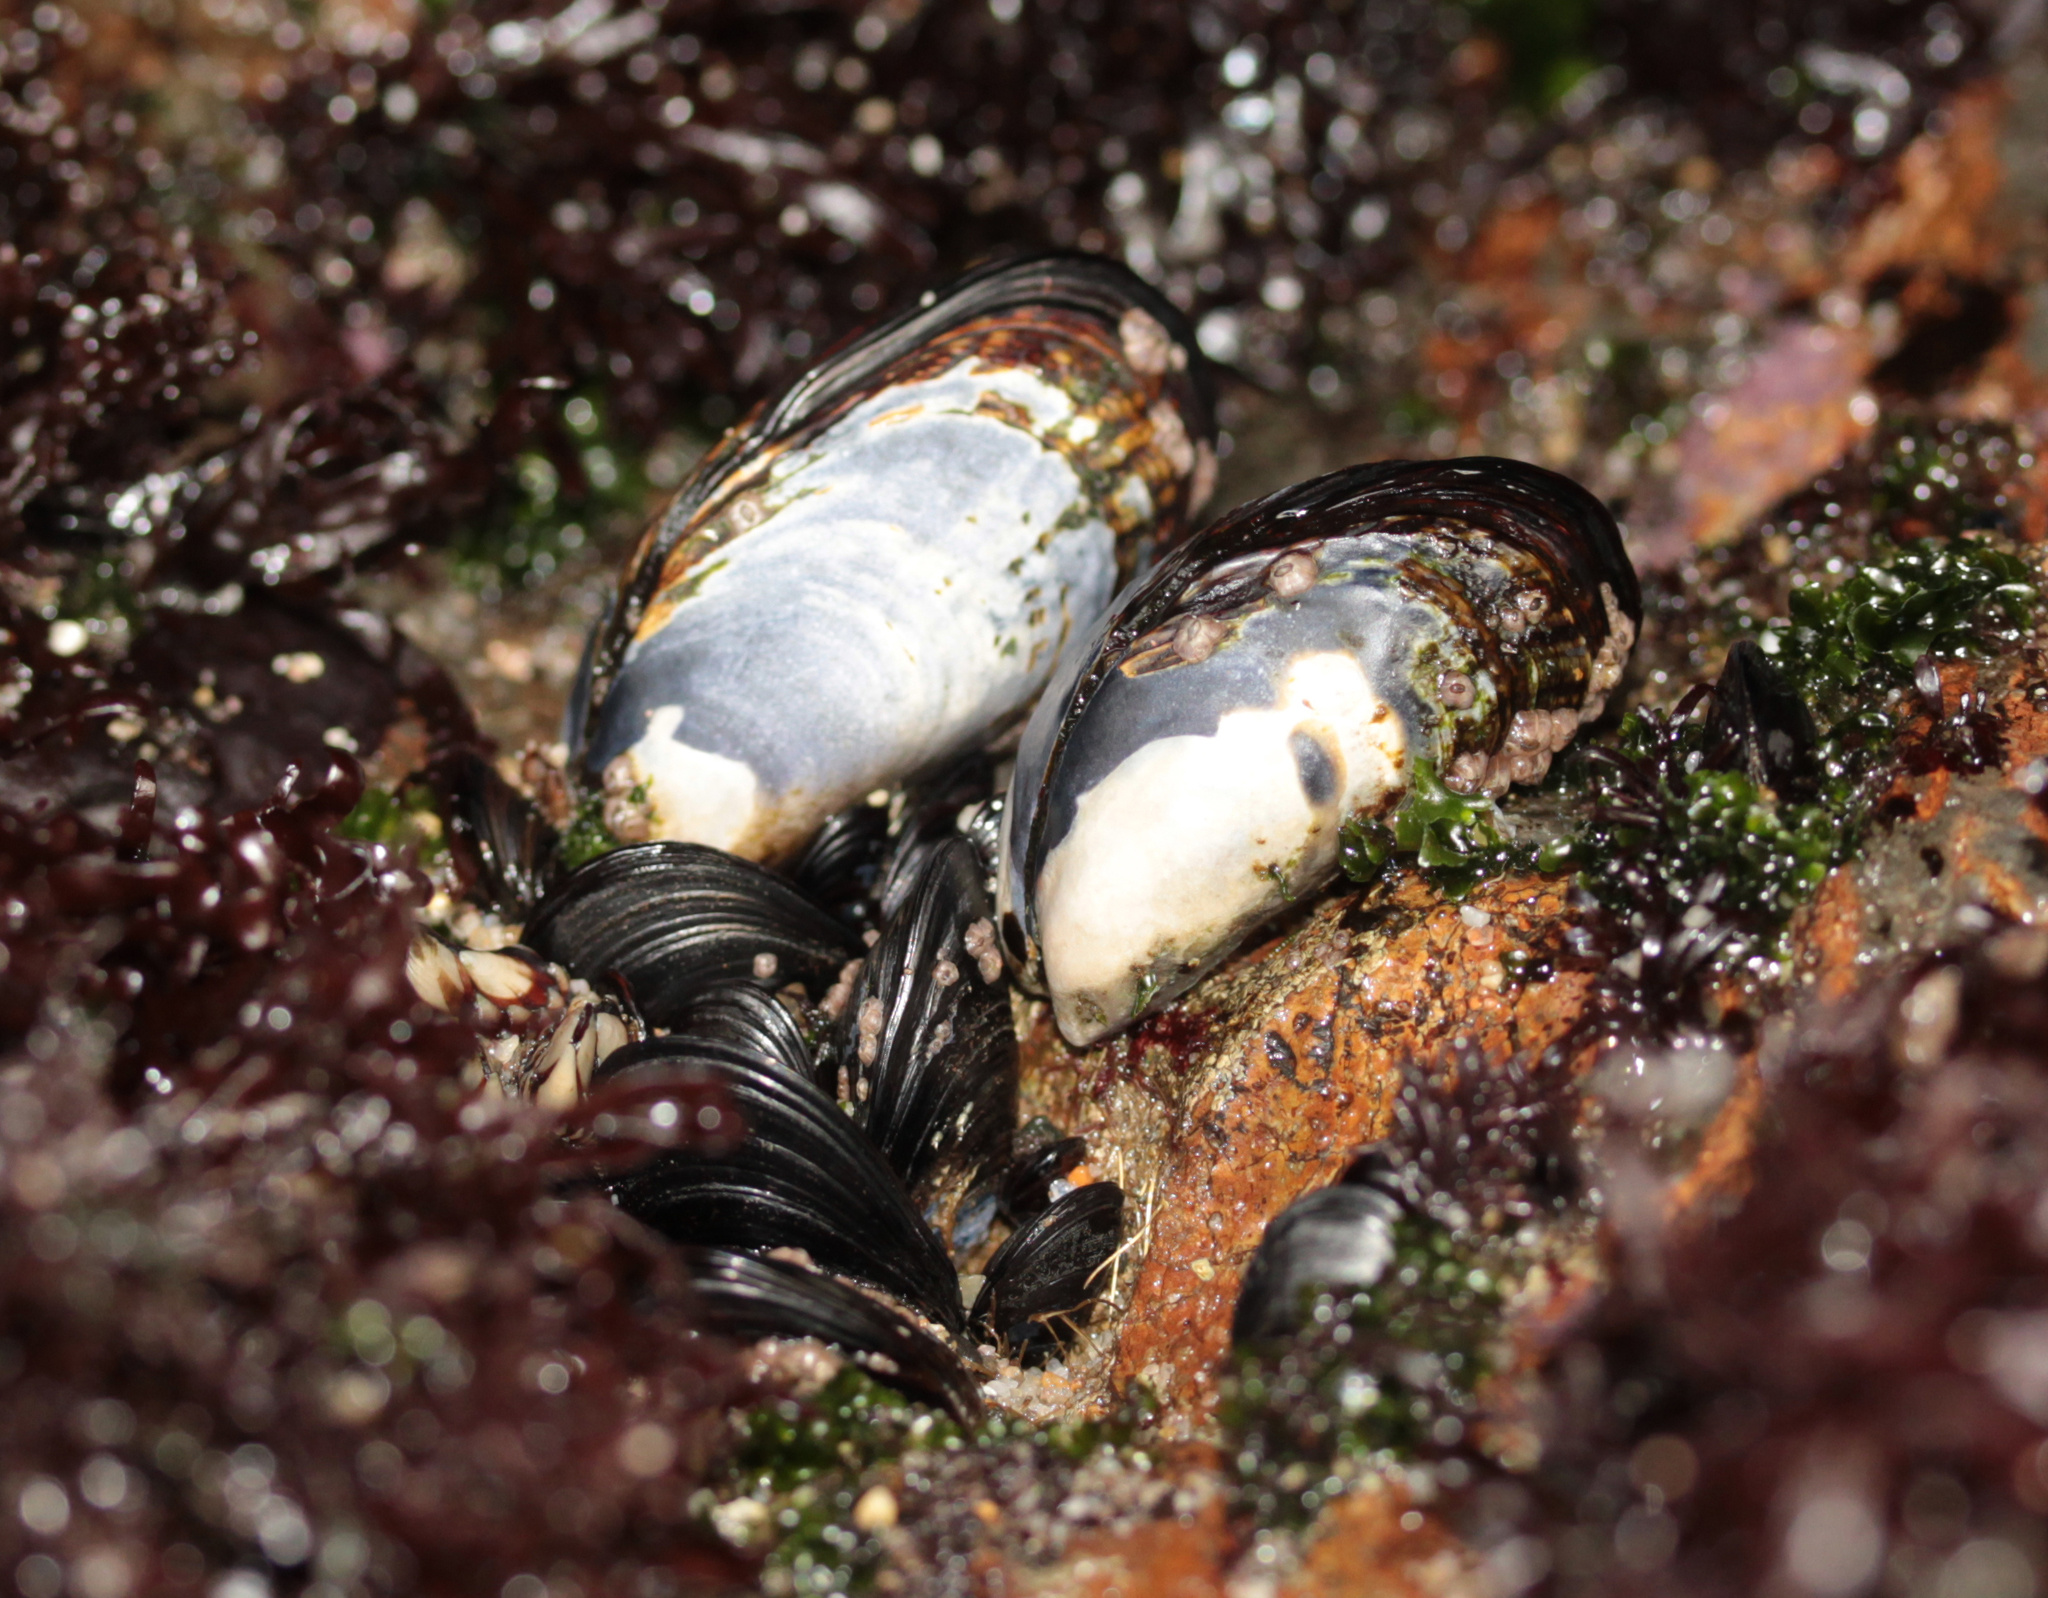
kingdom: Animalia
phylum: Mollusca
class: Bivalvia
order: Mytilida
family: Mytilidae
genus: Mytilus
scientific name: Mytilus californianus
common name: California mussel
